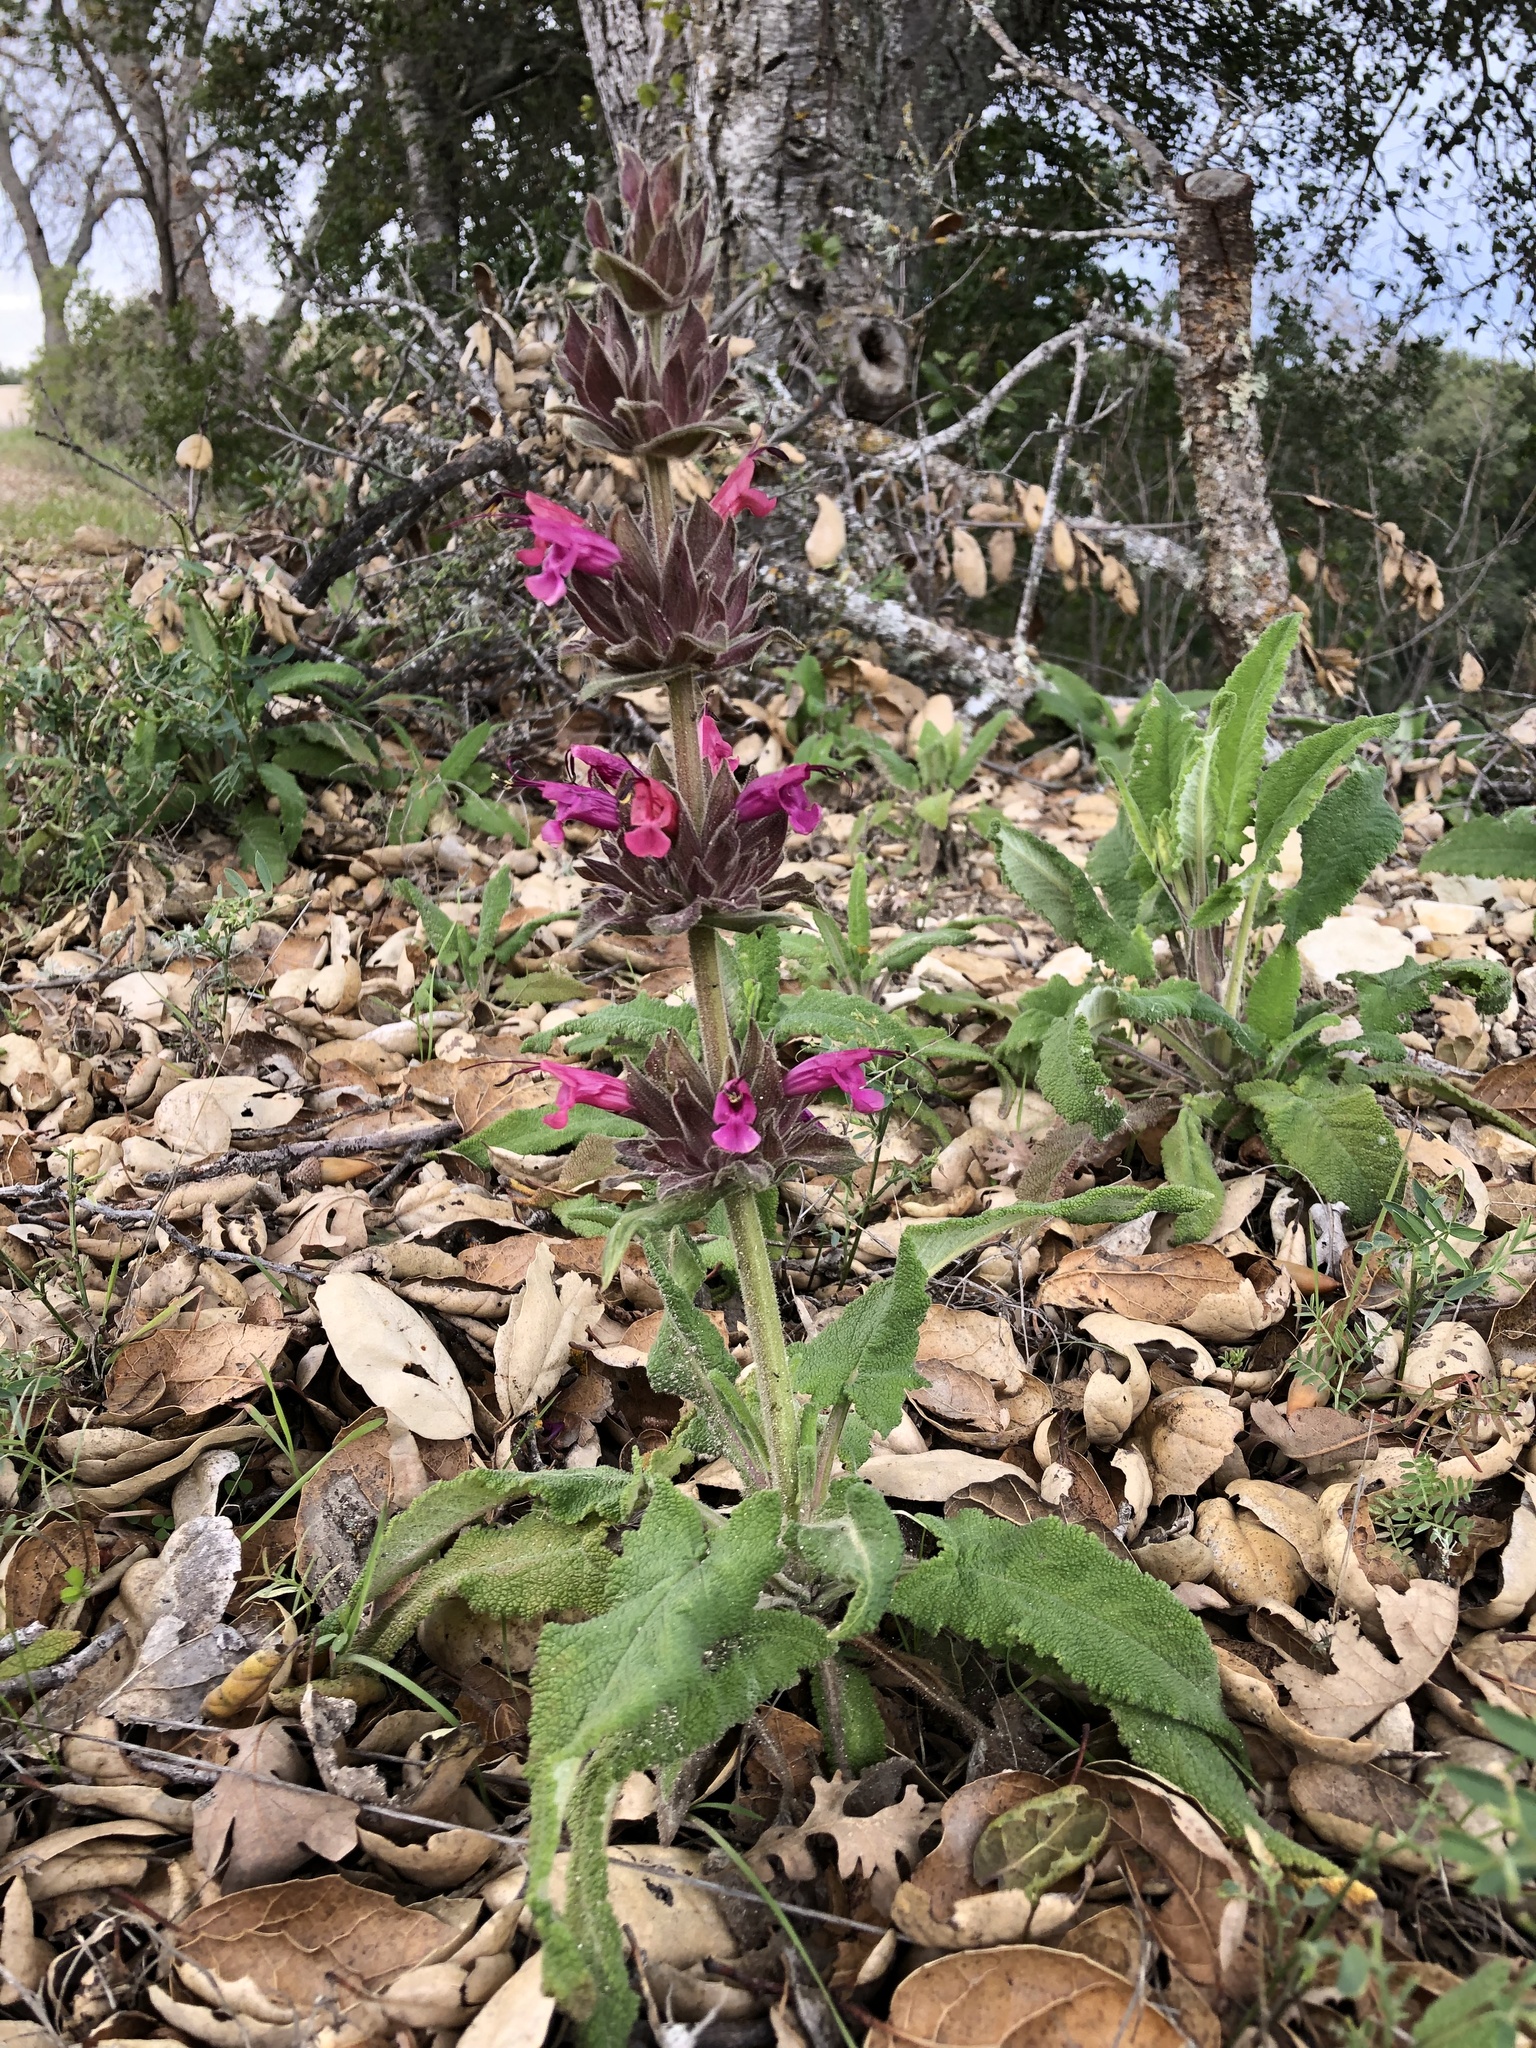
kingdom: Plantae
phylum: Tracheophyta
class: Magnoliopsida
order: Lamiales
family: Lamiaceae
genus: Salvia
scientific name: Salvia spathacea
